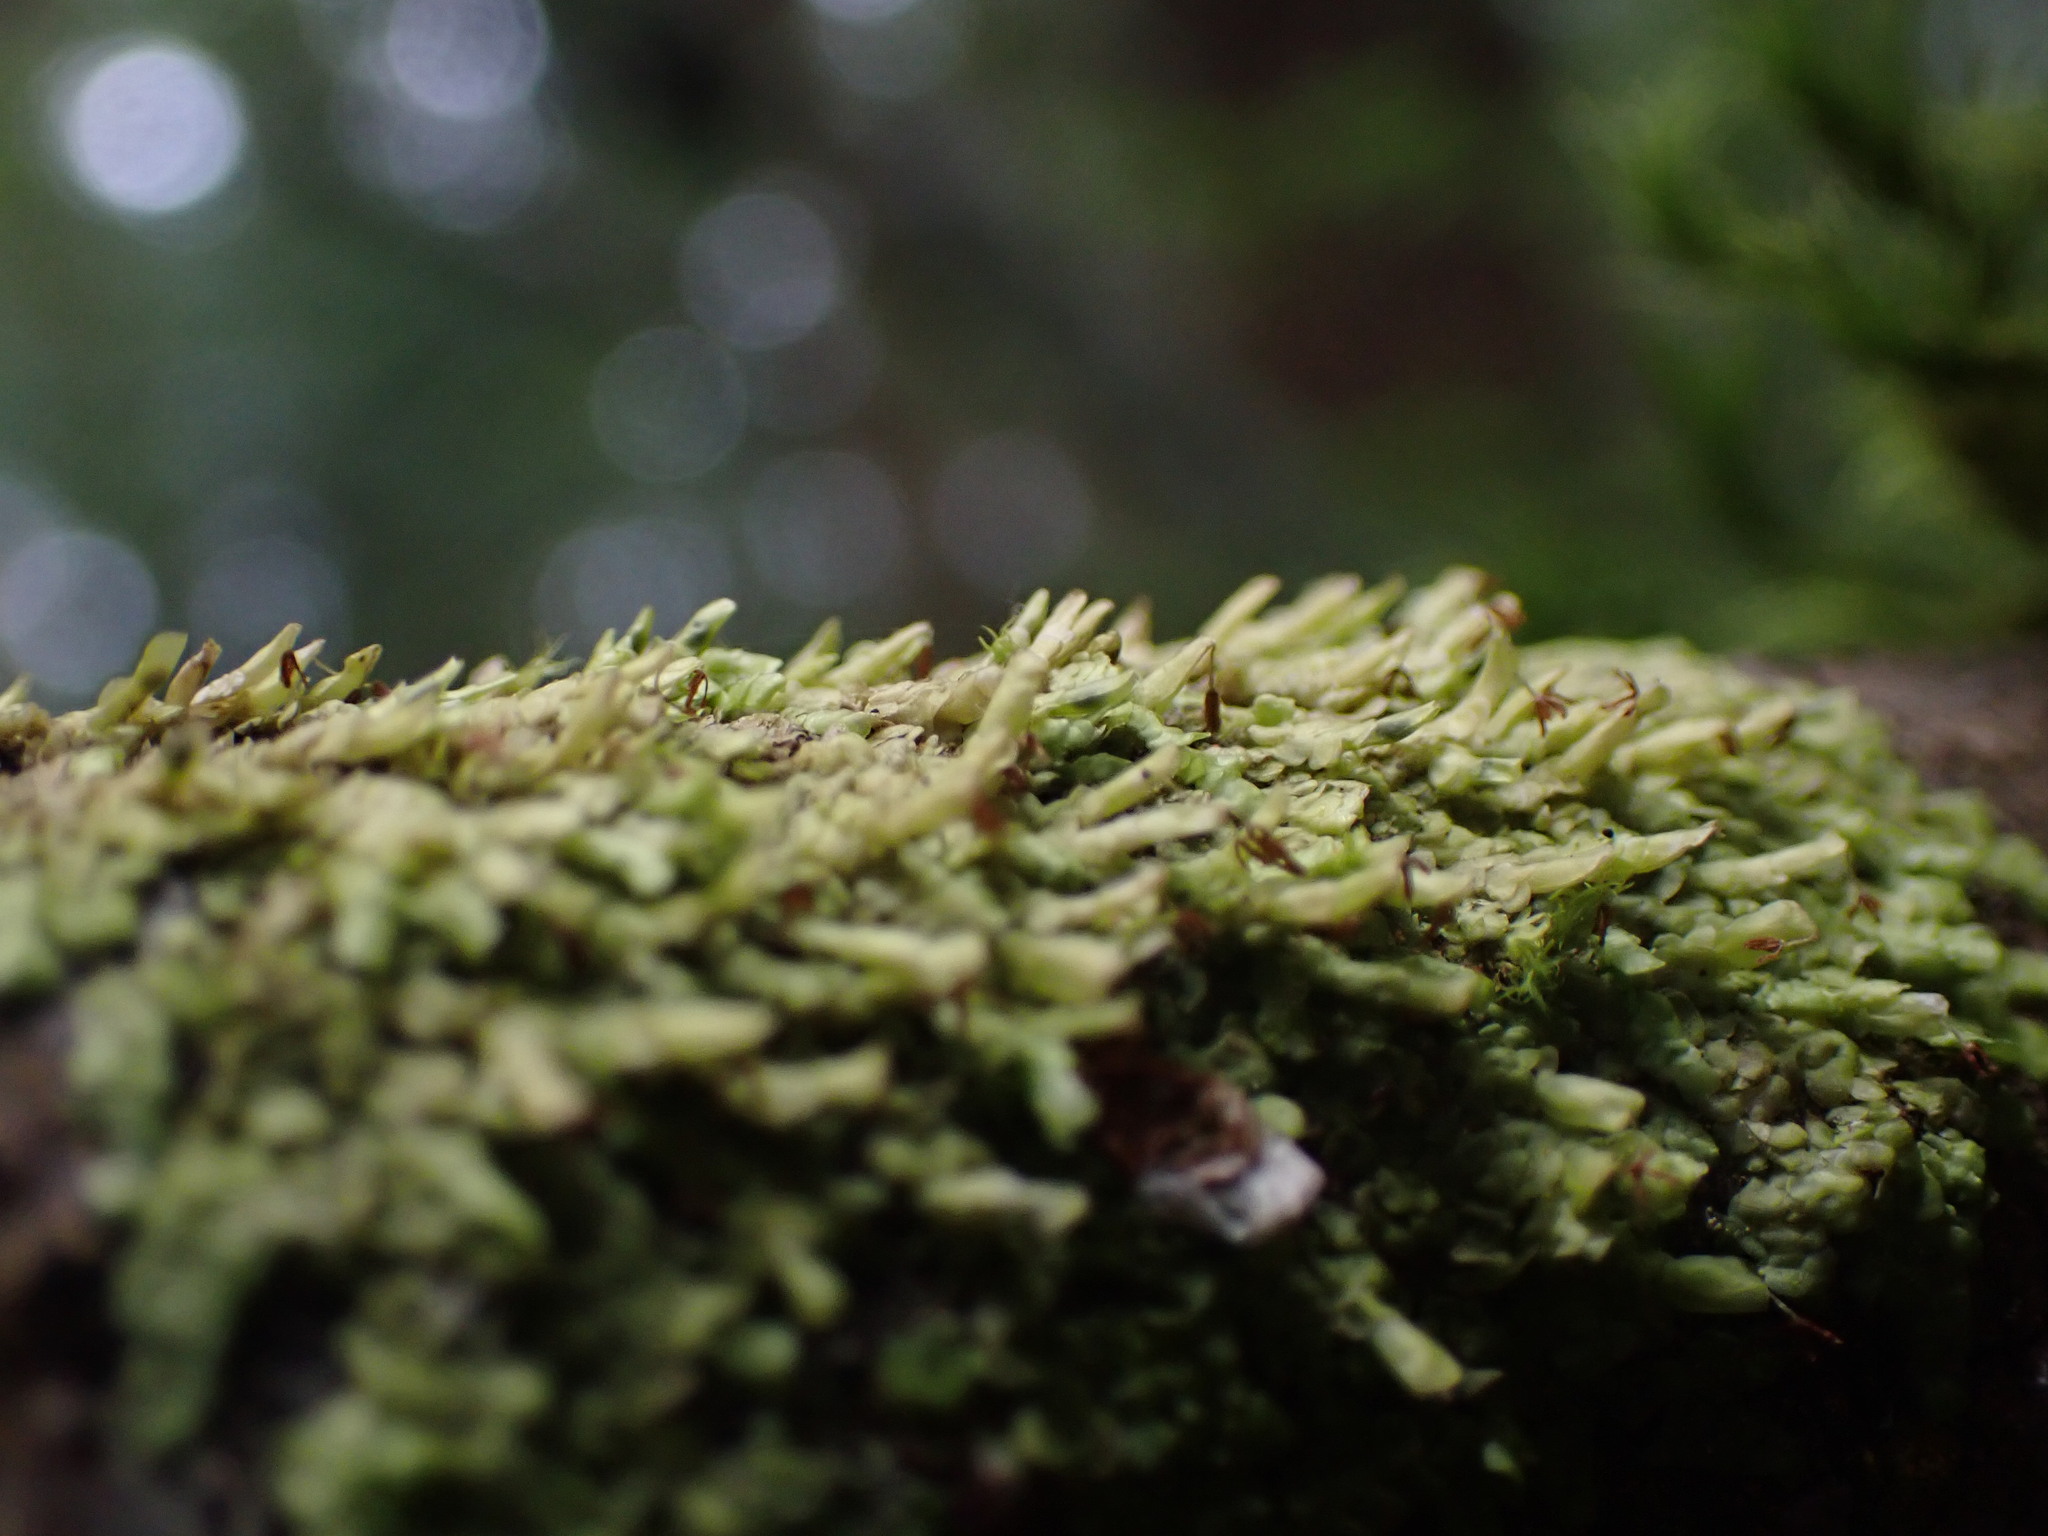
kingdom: Plantae
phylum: Marchantiophyta
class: Jungermanniopsida
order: Porellales
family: Radulaceae
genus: Radula
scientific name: Radula complanata
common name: Flat-leaved scalewort
